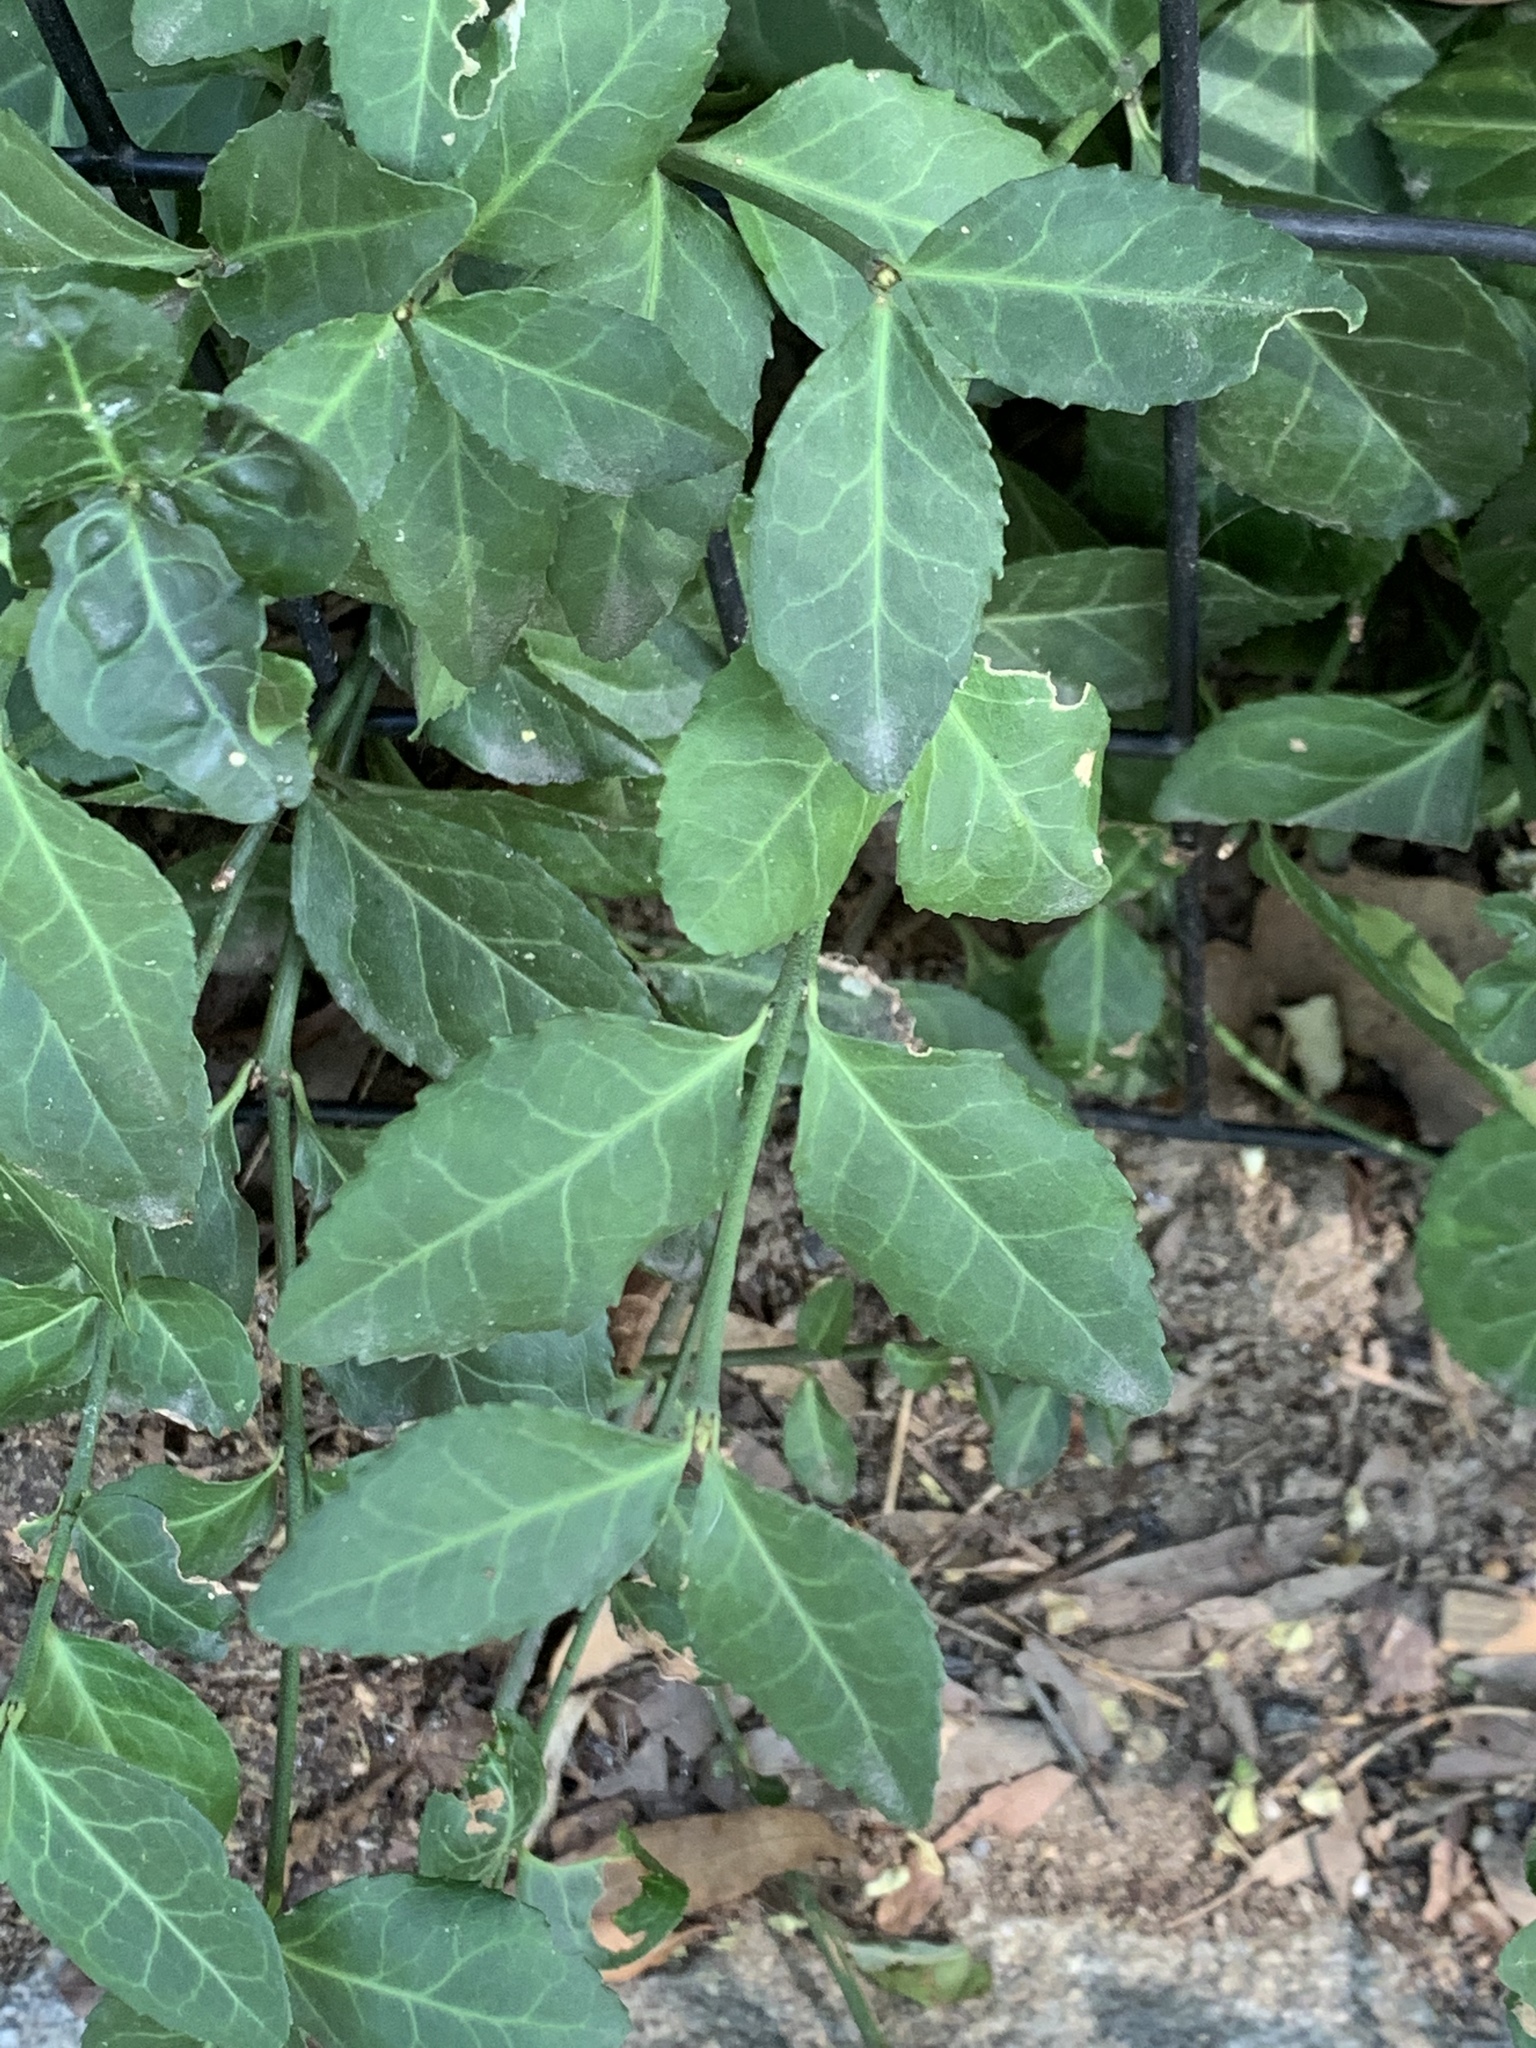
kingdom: Plantae
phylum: Tracheophyta
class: Magnoliopsida
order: Celastrales
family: Celastraceae
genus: Euonymus
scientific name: Euonymus fortunei
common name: Climbing euonymus
